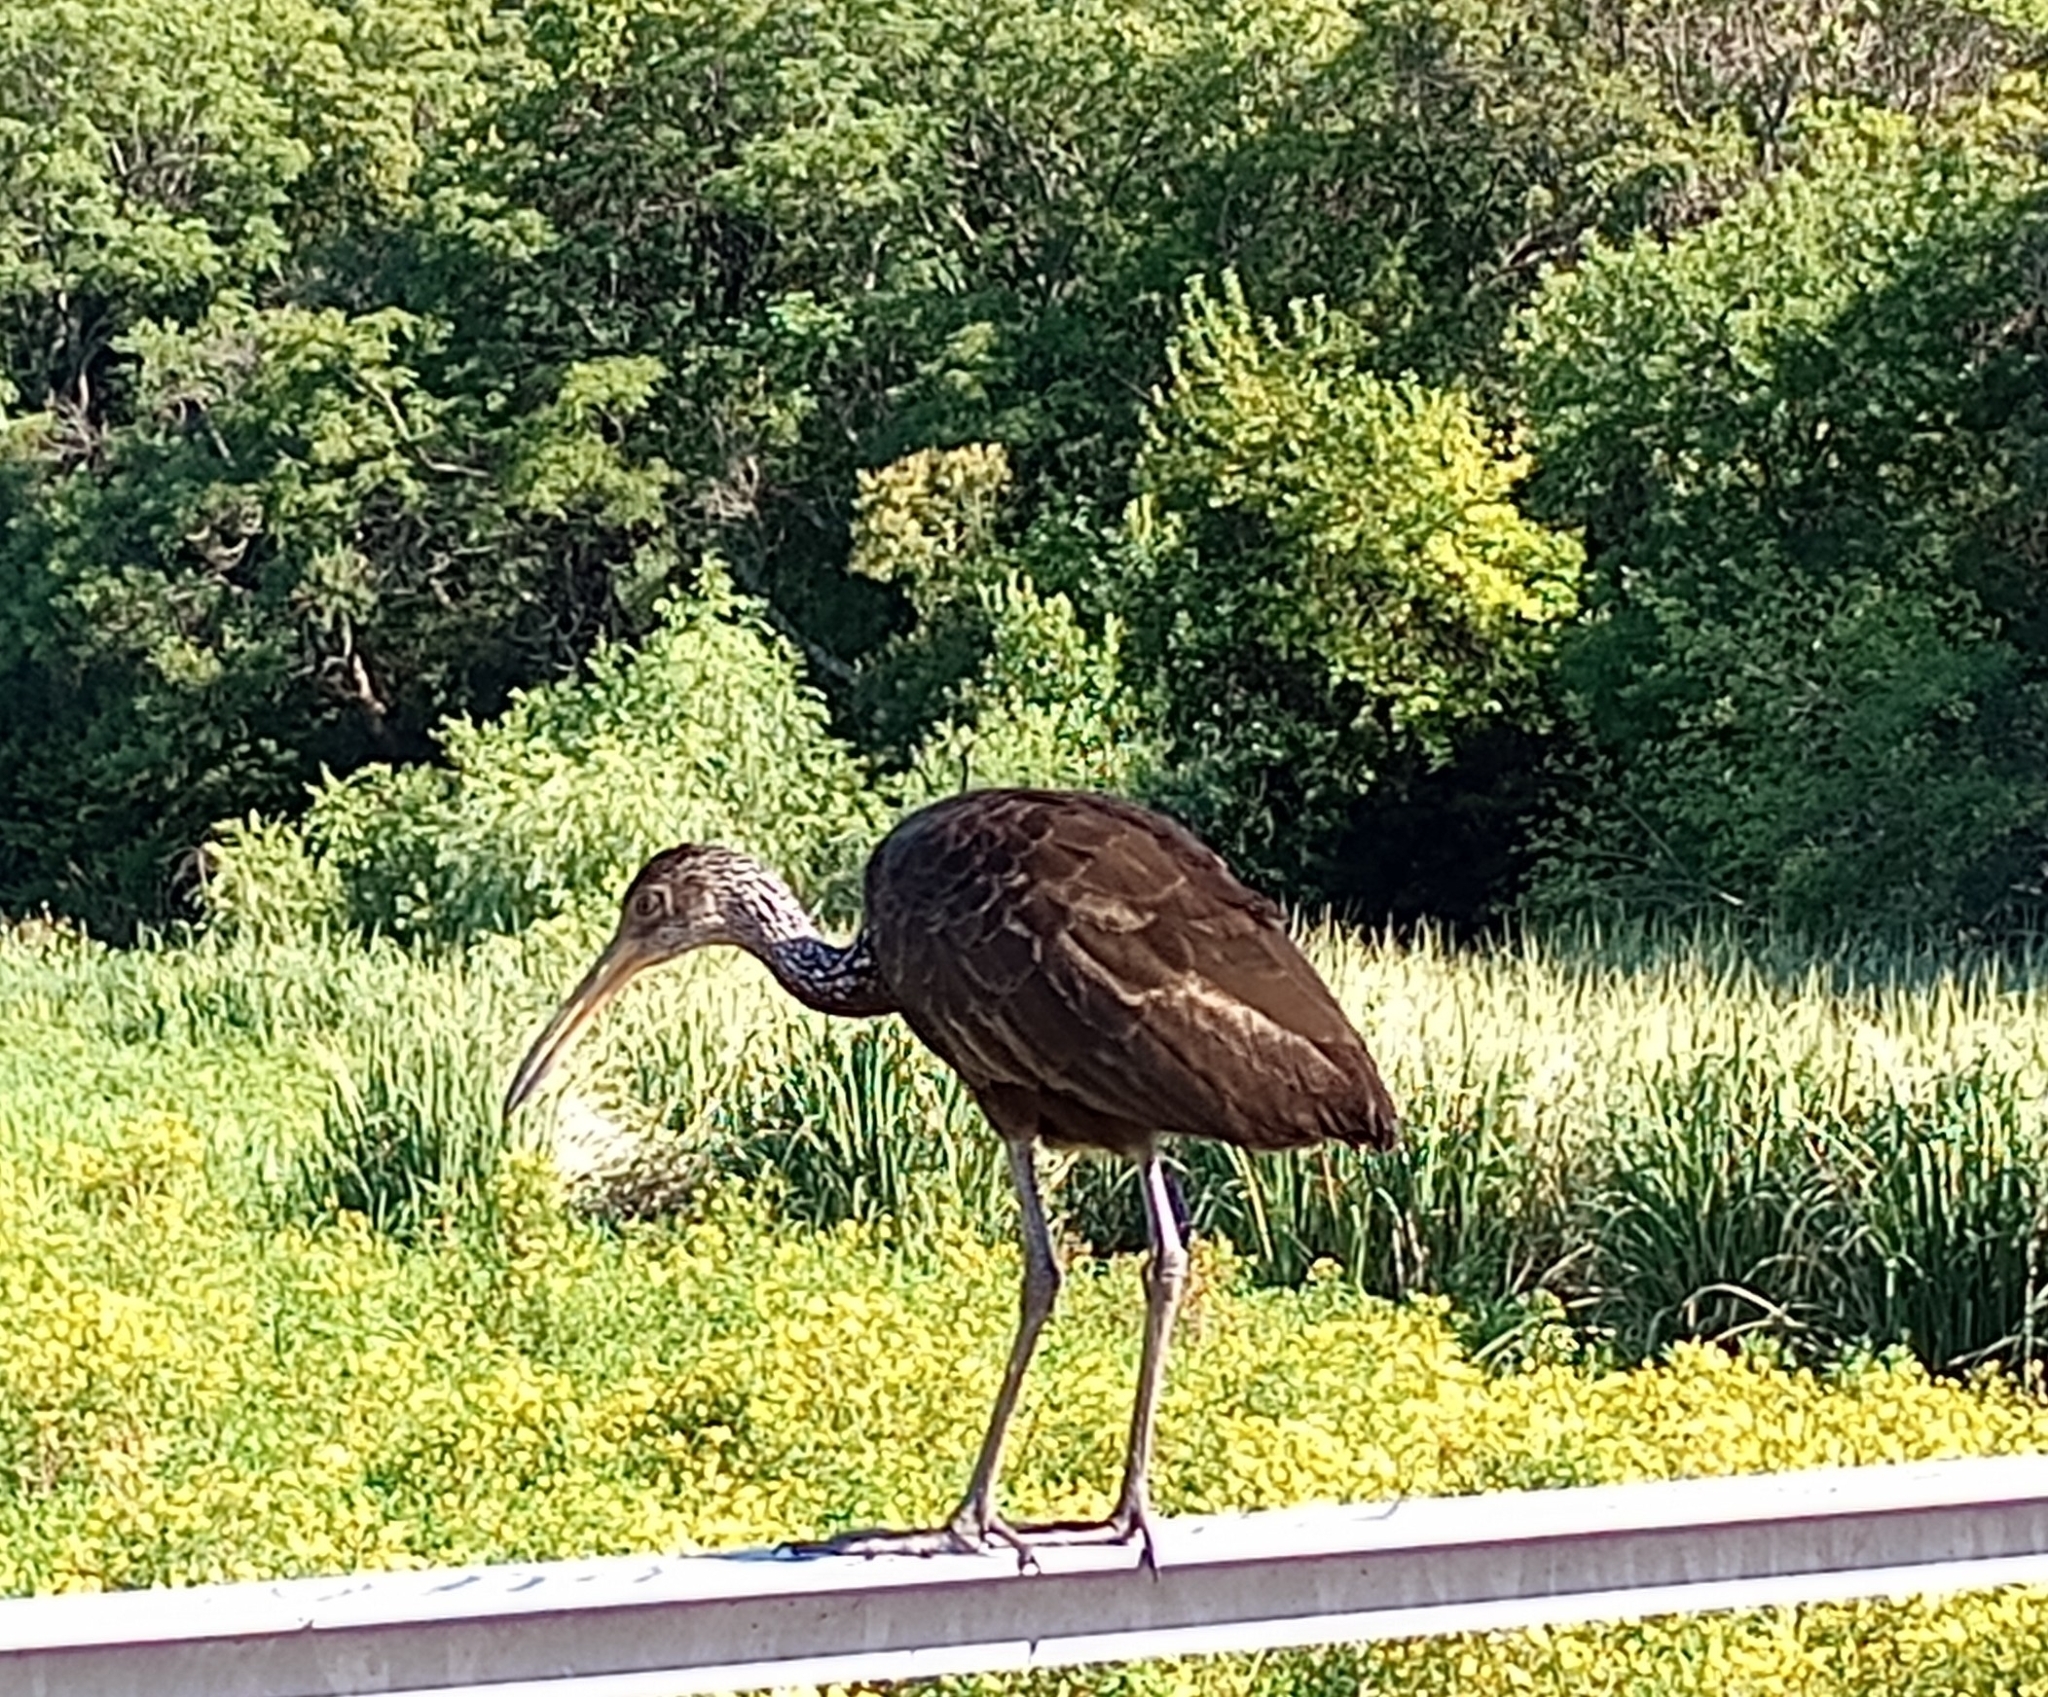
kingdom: Animalia
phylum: Chordata
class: Aves
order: Gruiformes
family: Aramidae
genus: Aramus
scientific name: Aramus guarauna
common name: Limpkin
